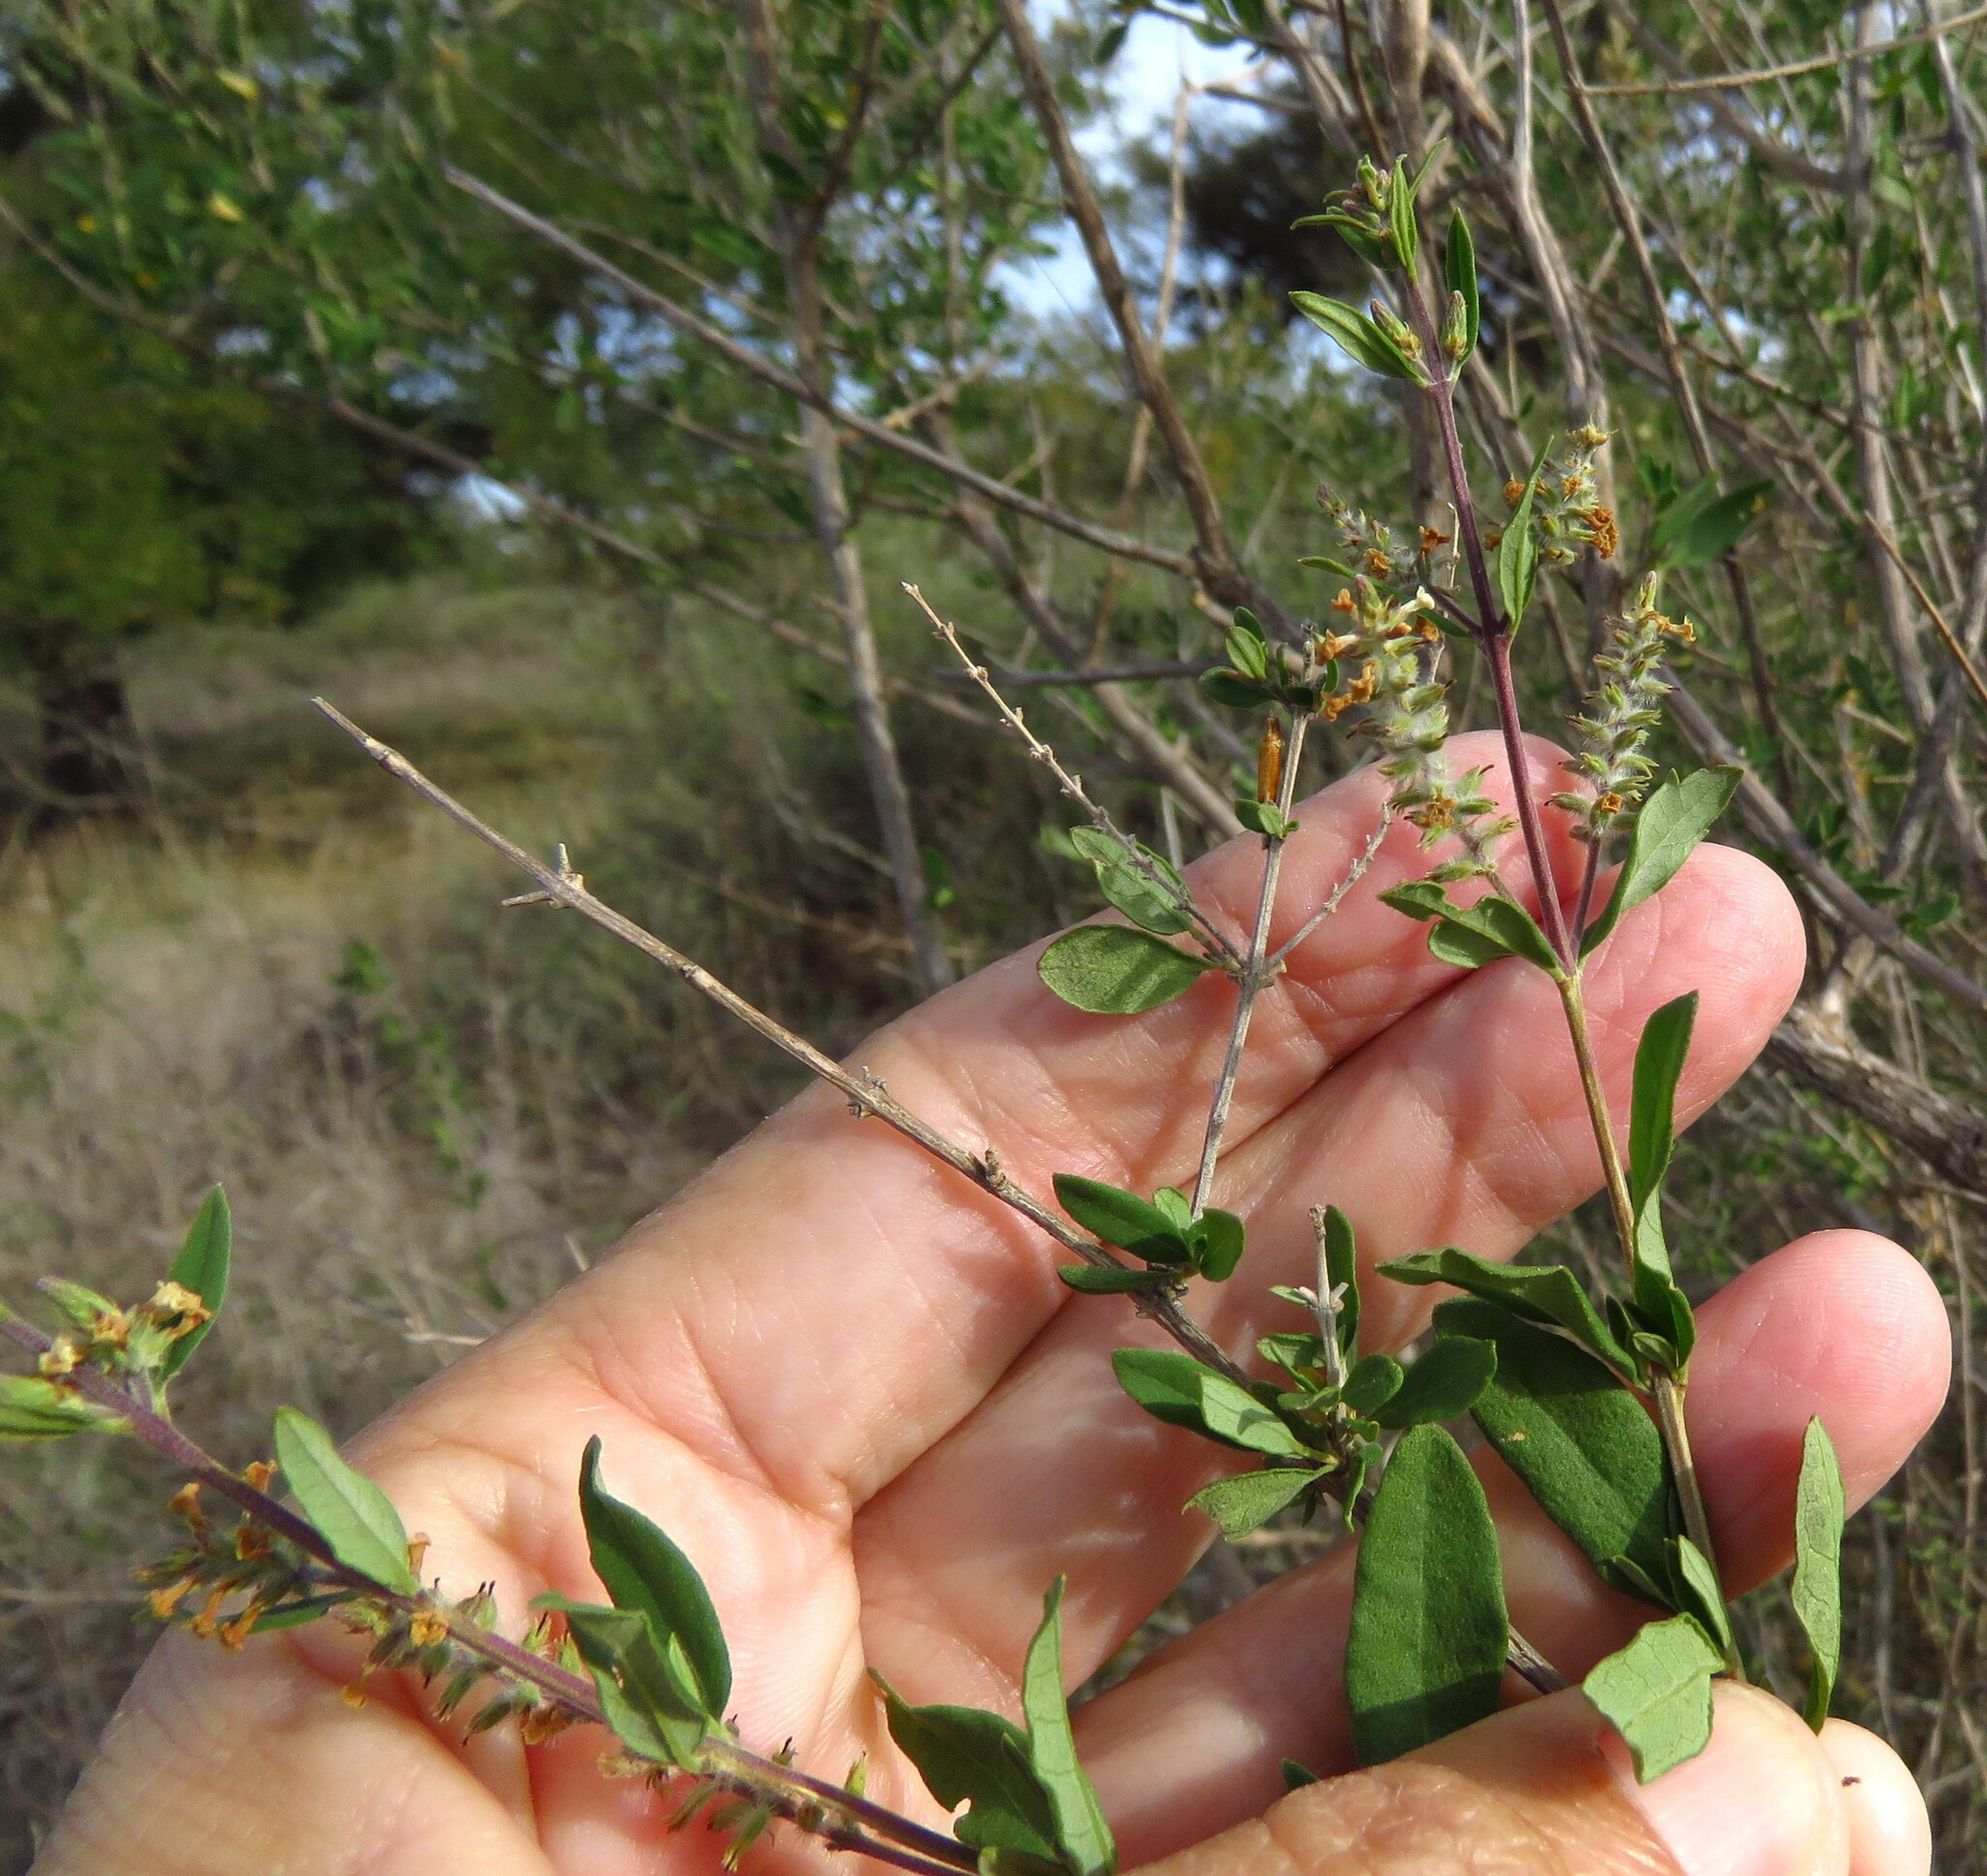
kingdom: Plantae
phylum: Tracheophyta
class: Magnoliopsida
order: Lamiales
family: Verbenaceae
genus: Aloysia
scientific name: Aloysia gratissima
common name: Common bee-brush
